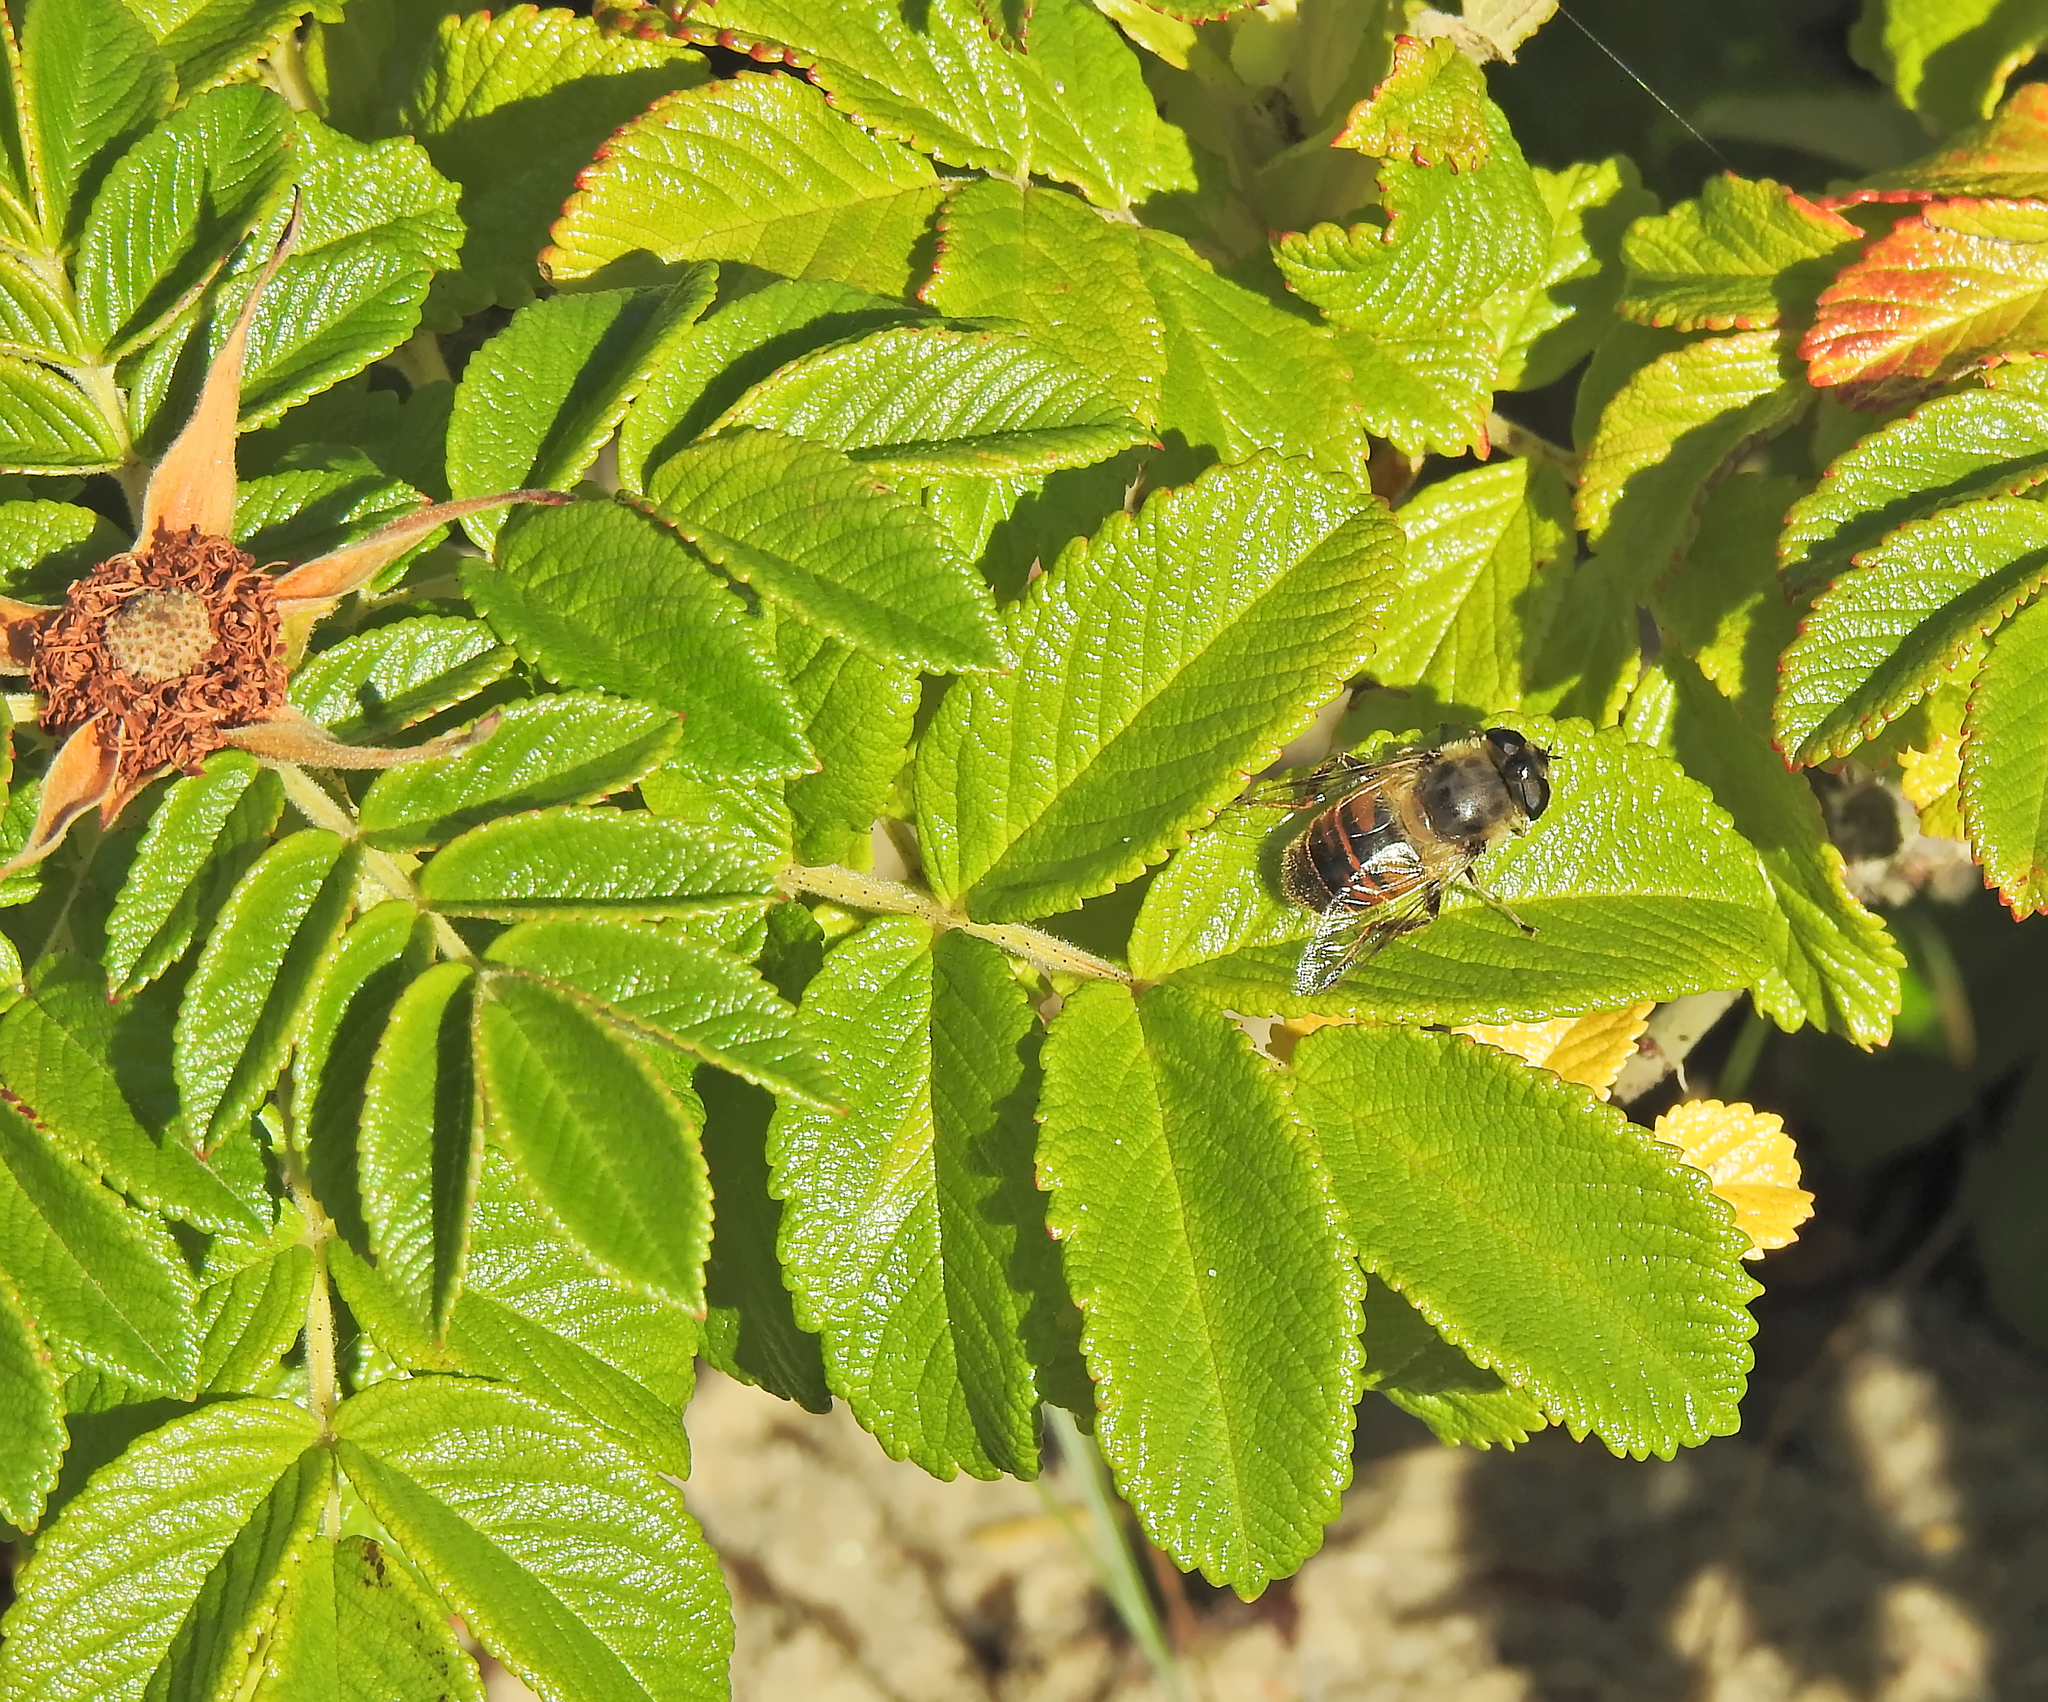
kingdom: Animalia
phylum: Arthropoda
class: Insecta
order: Diptera
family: Syrphidae
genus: Eristalis
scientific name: Eristalis tenax
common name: Drone fly
